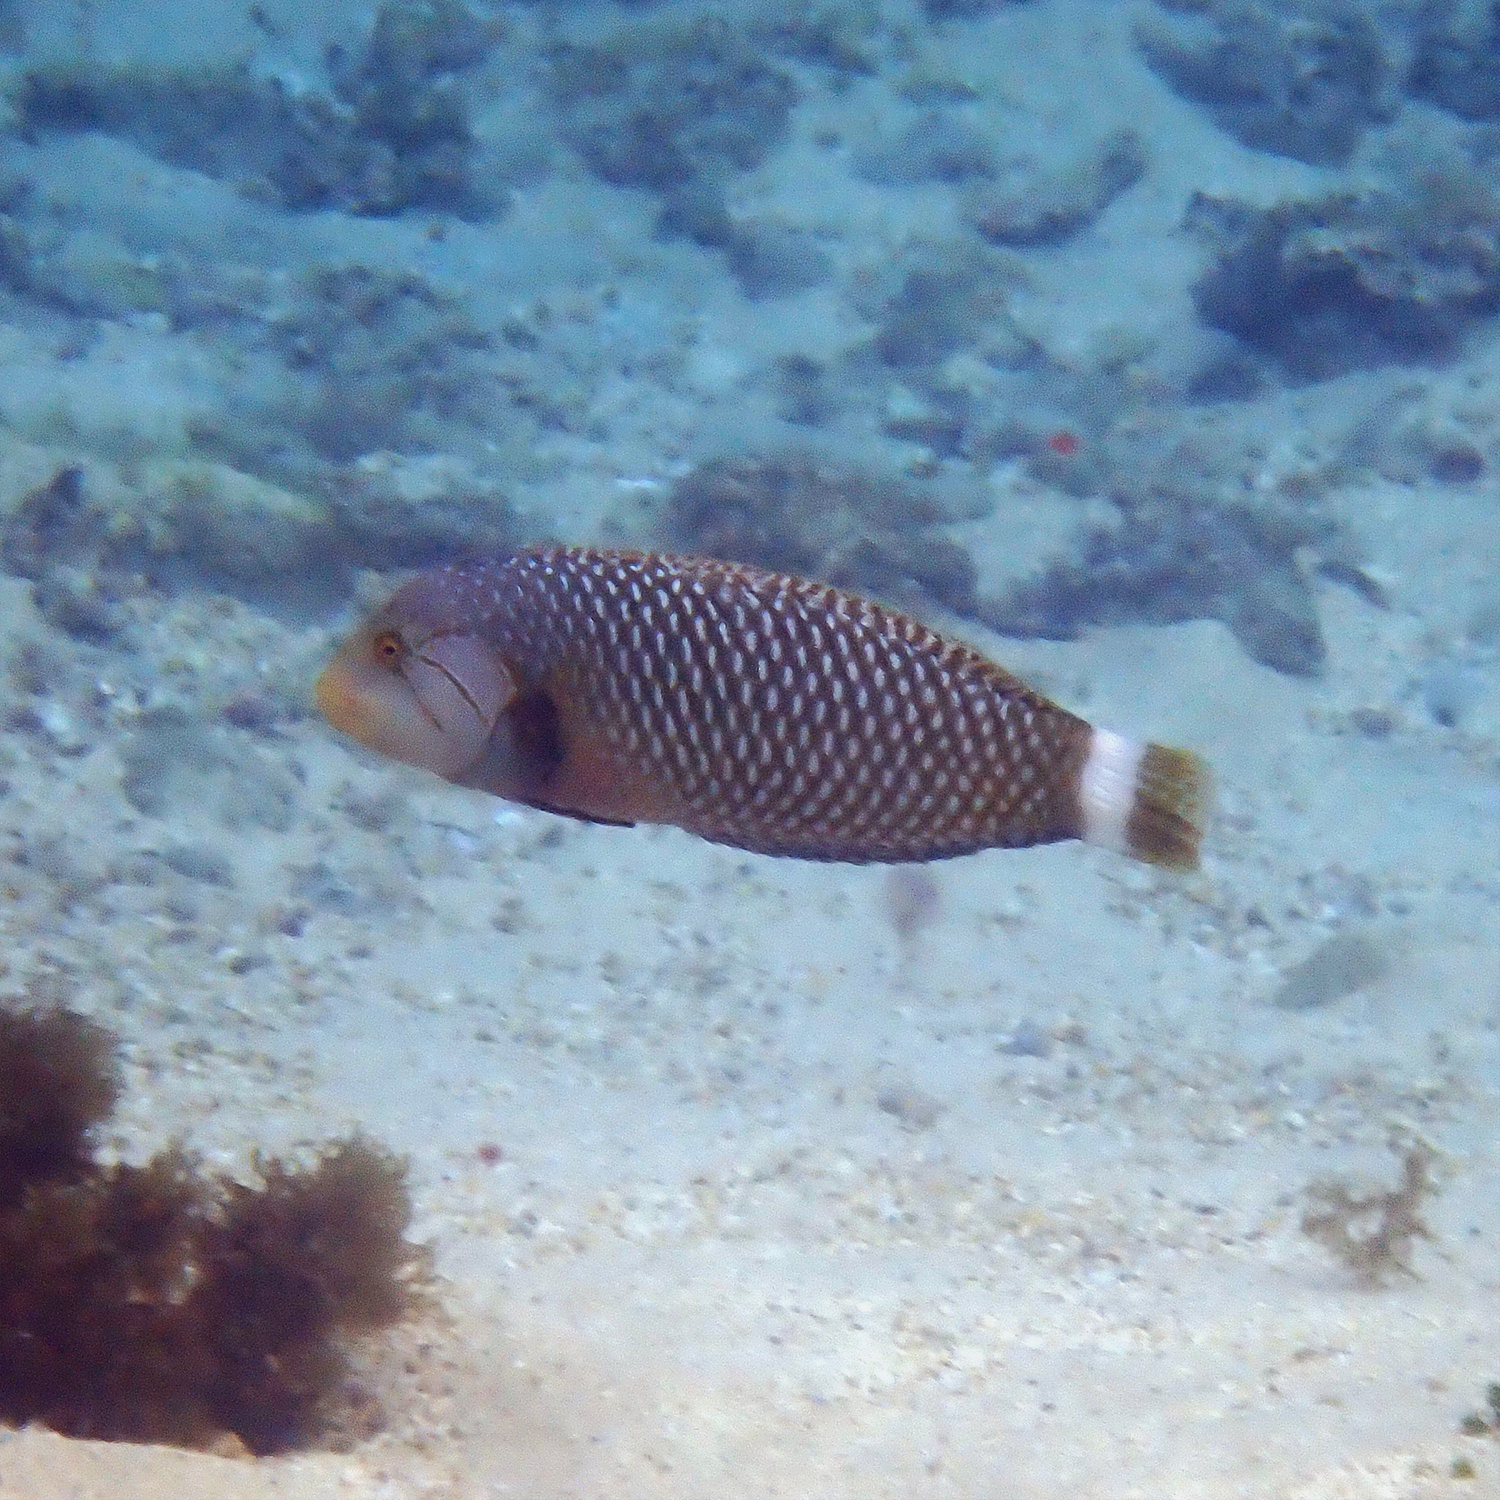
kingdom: Animalia
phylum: Chordata
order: Perciformes
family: Labridae
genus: Novaculichthys
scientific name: Novaculichthys taeniourus
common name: Rockmover wrasse
